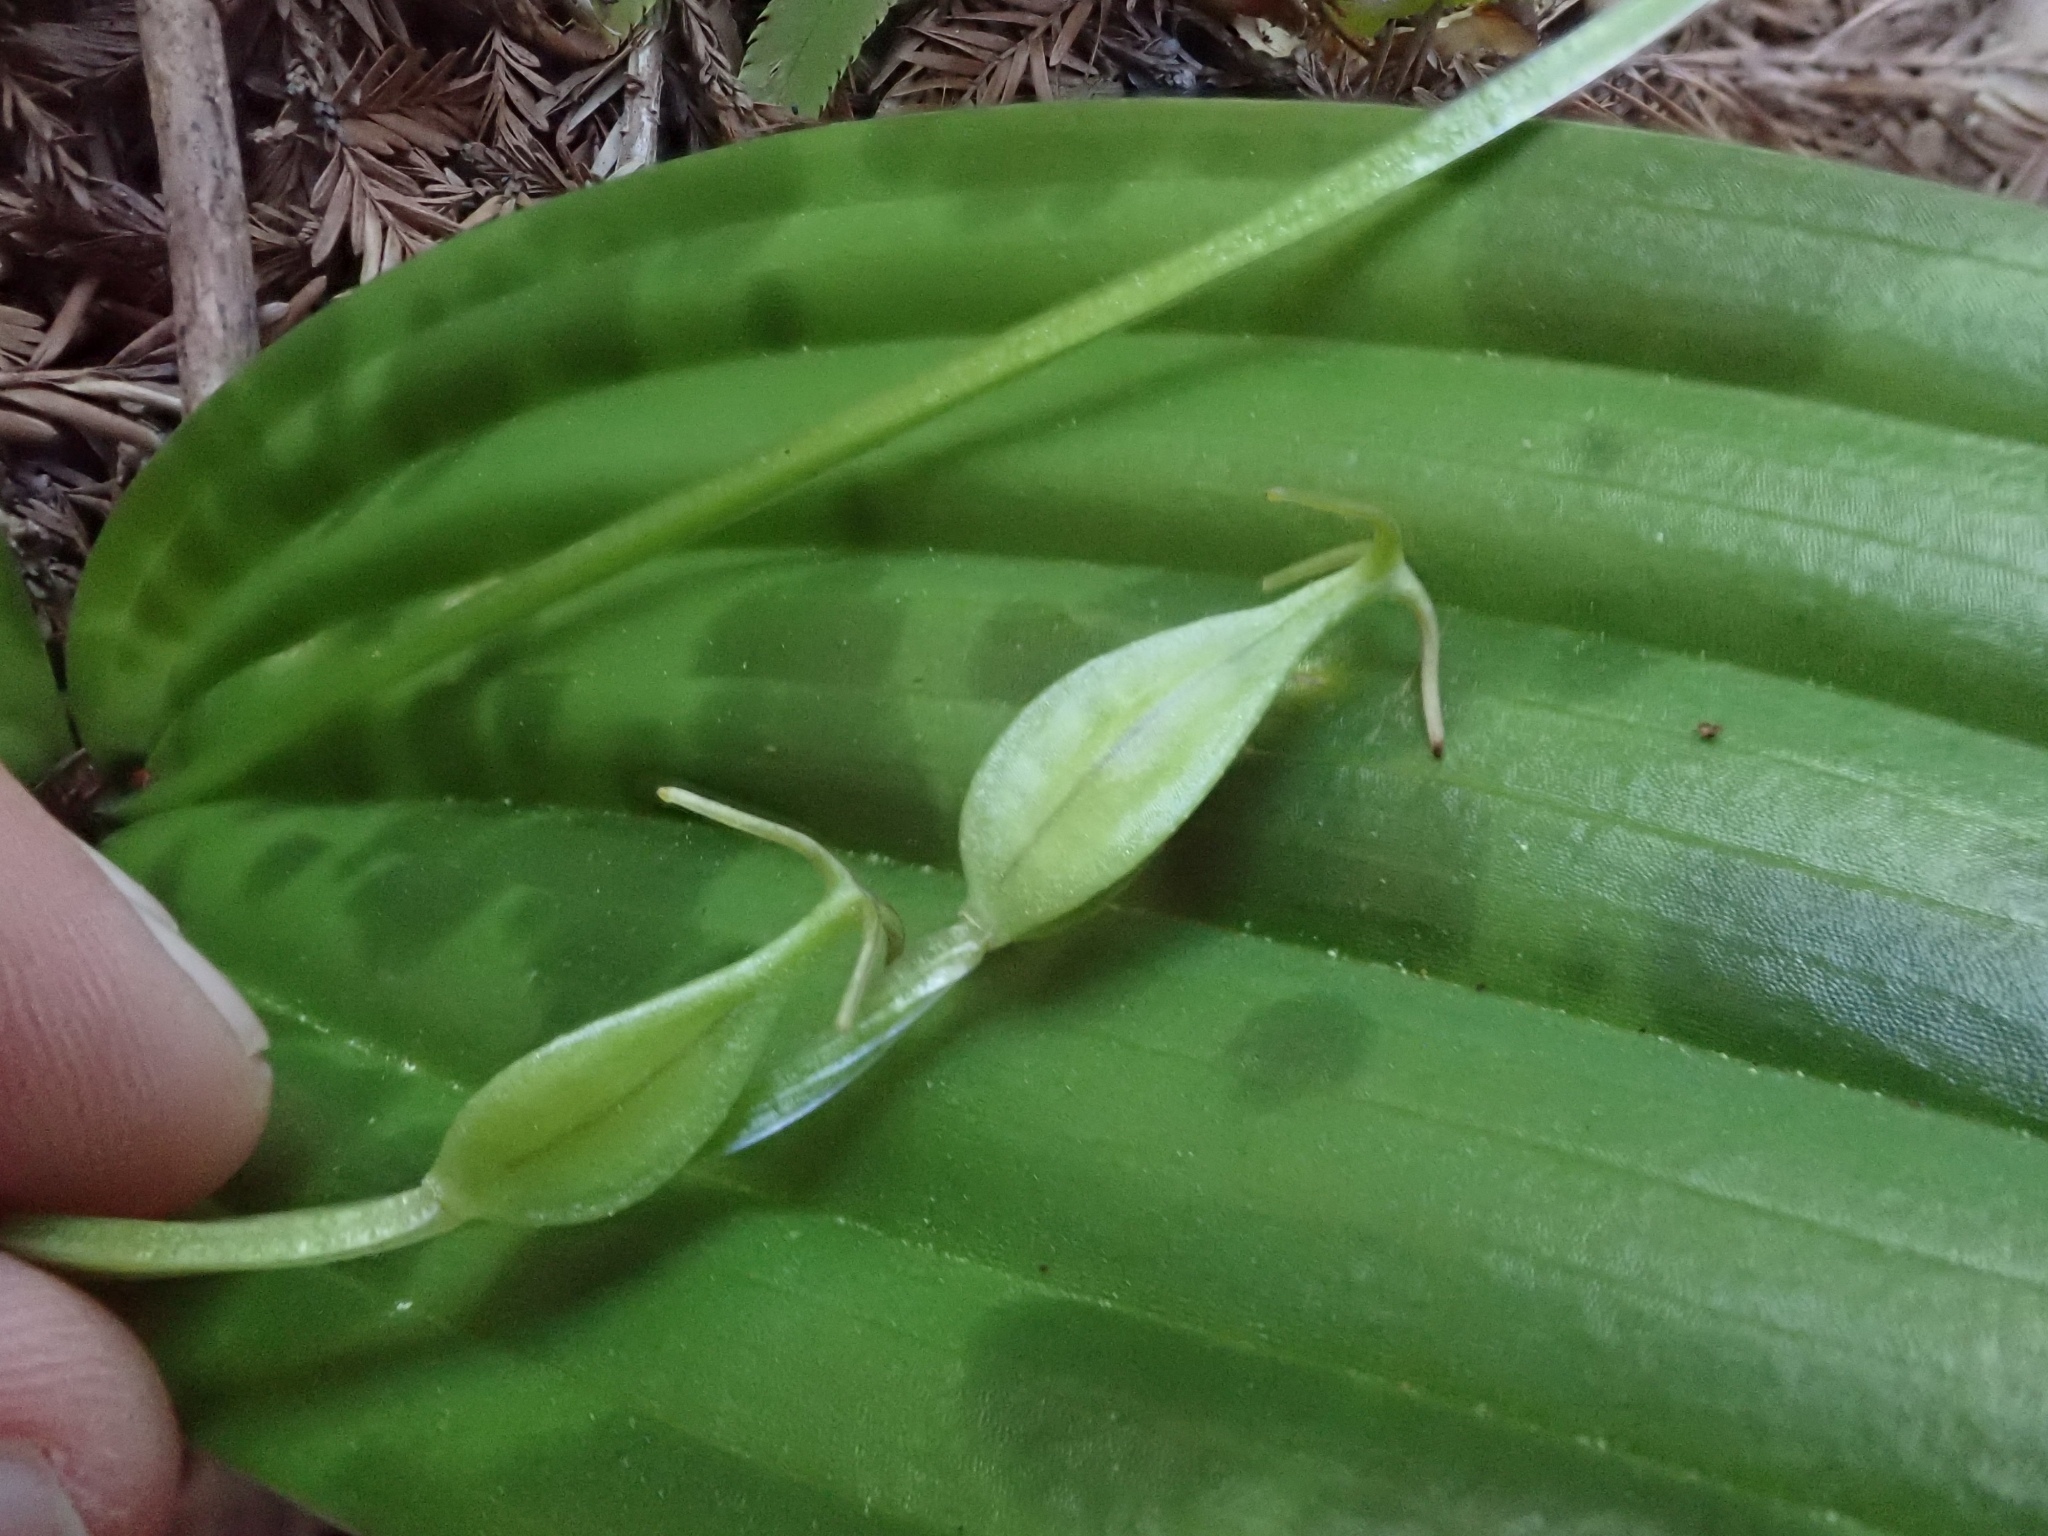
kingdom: Plantae
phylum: Tracheophyta
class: Liliopsida
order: Liliales
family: Liliaceae
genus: Scoliopus
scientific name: Scoliopus bigelovii
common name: Foetid adder's-tongue
